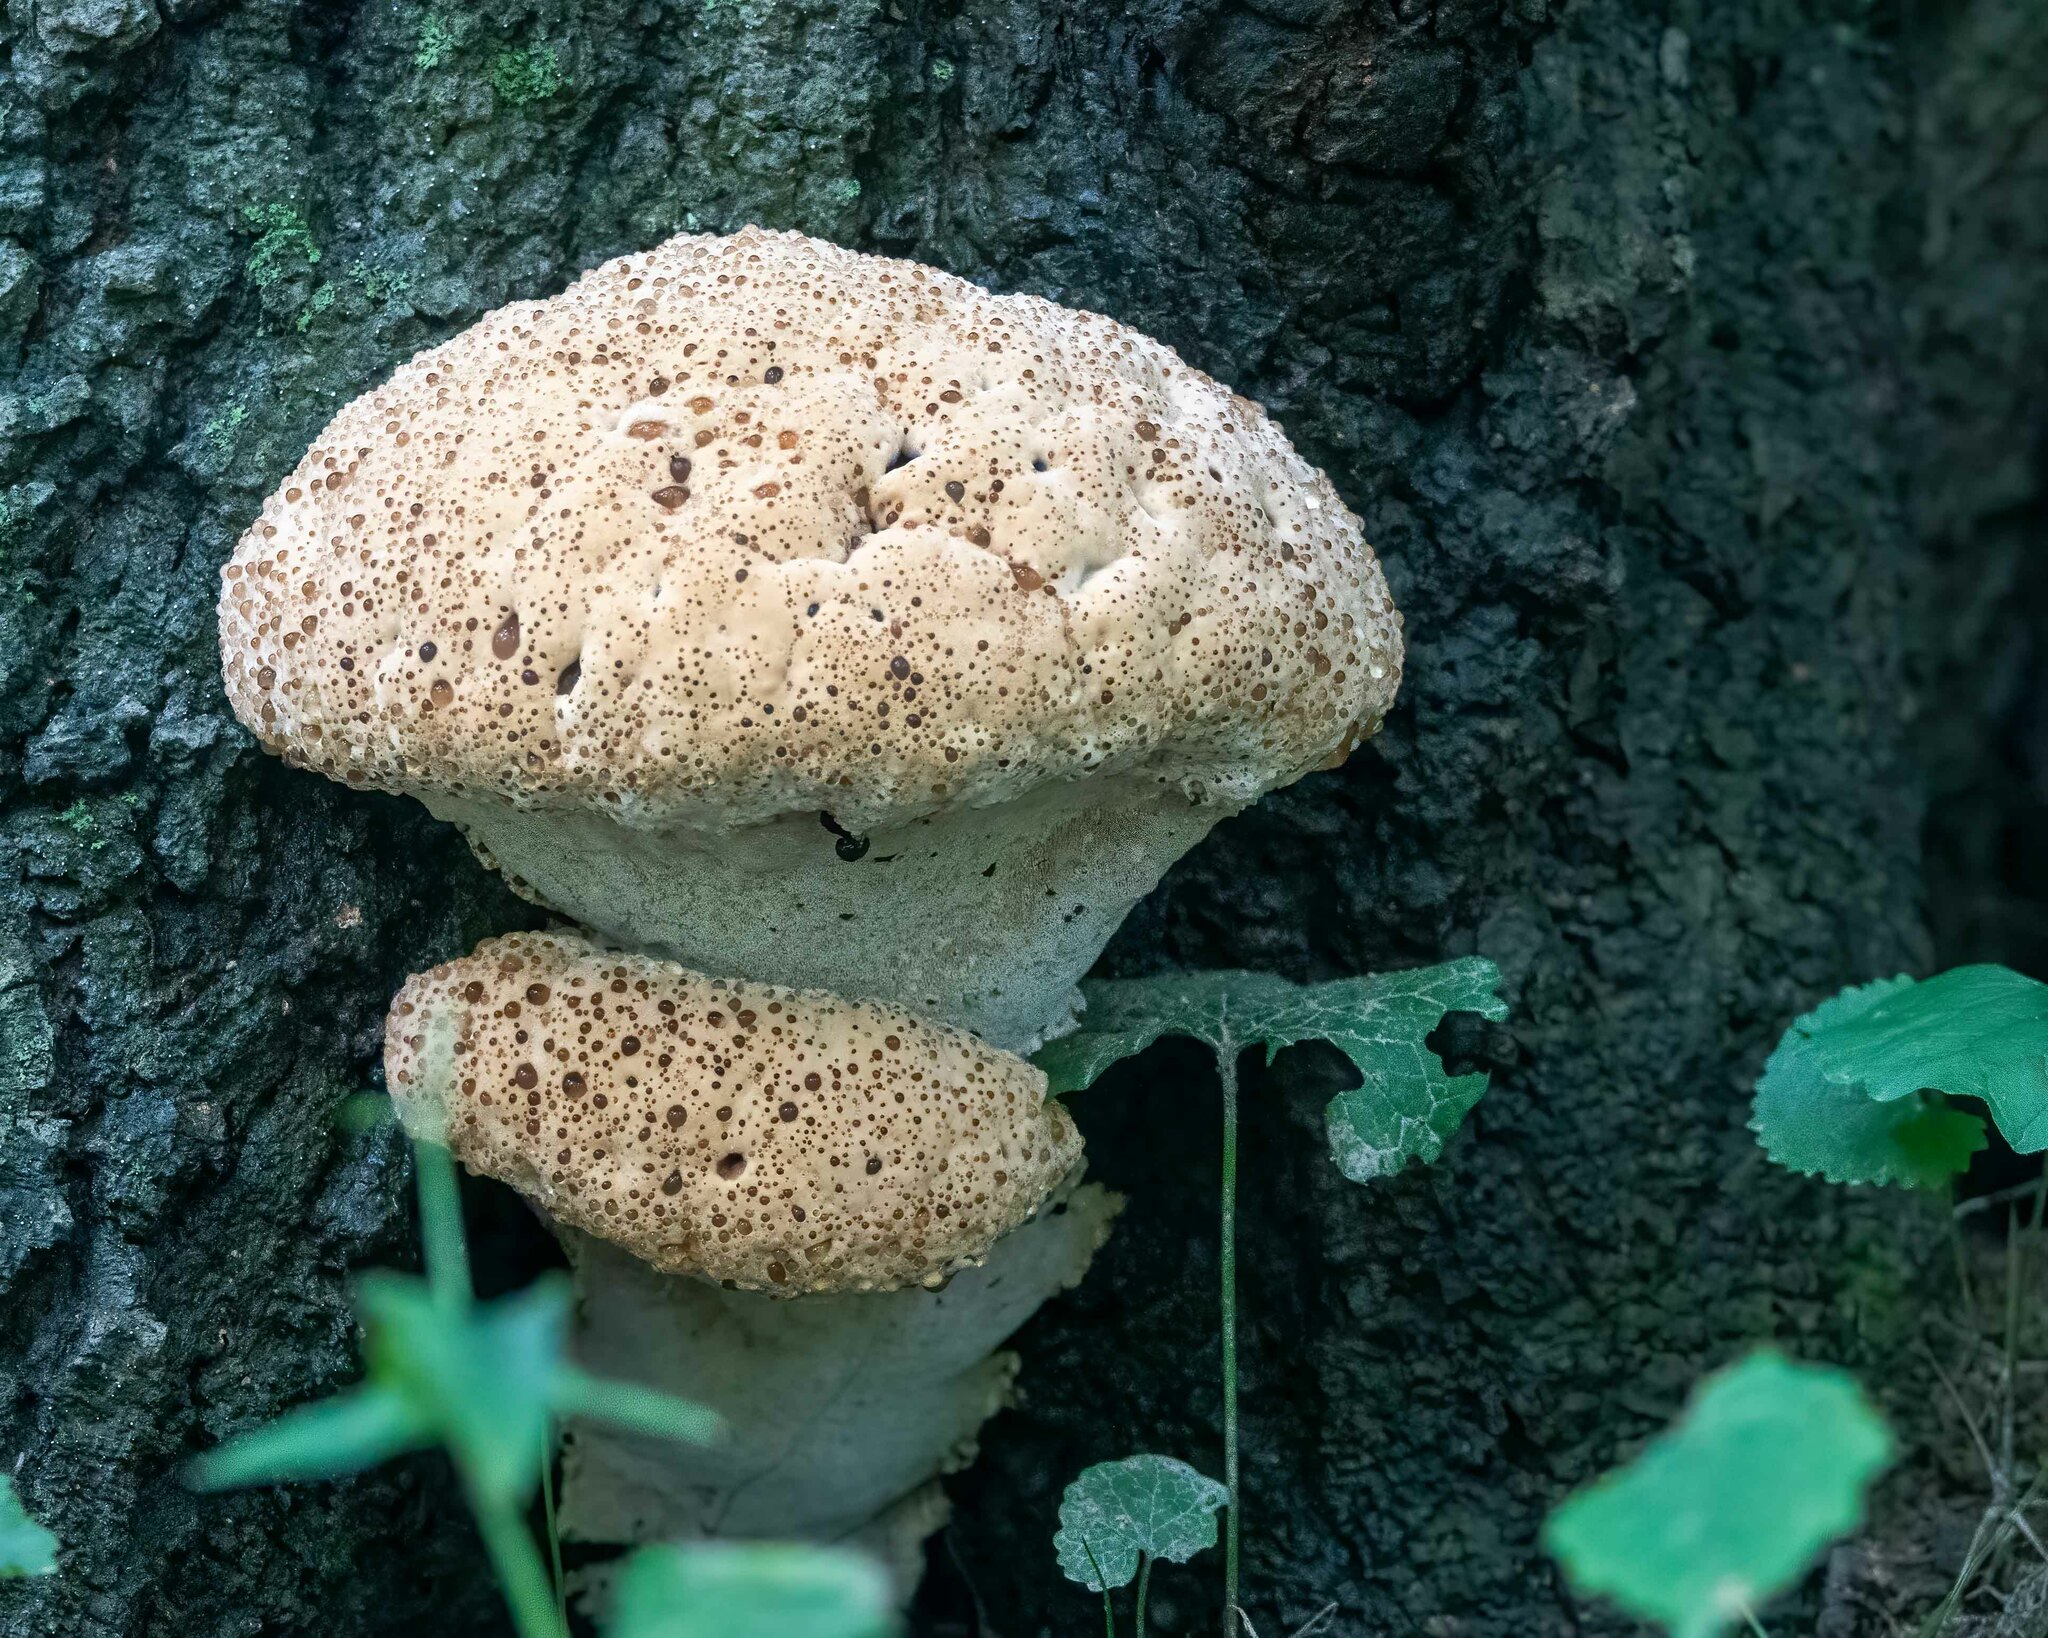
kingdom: Fungi
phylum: Basidiomycota
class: Agaricomycetes
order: Hymenochaetales
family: Hymenochaetaceae
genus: Pseudoinonotus
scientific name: Pseudoinonotus dryadeus
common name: Oak bracket
